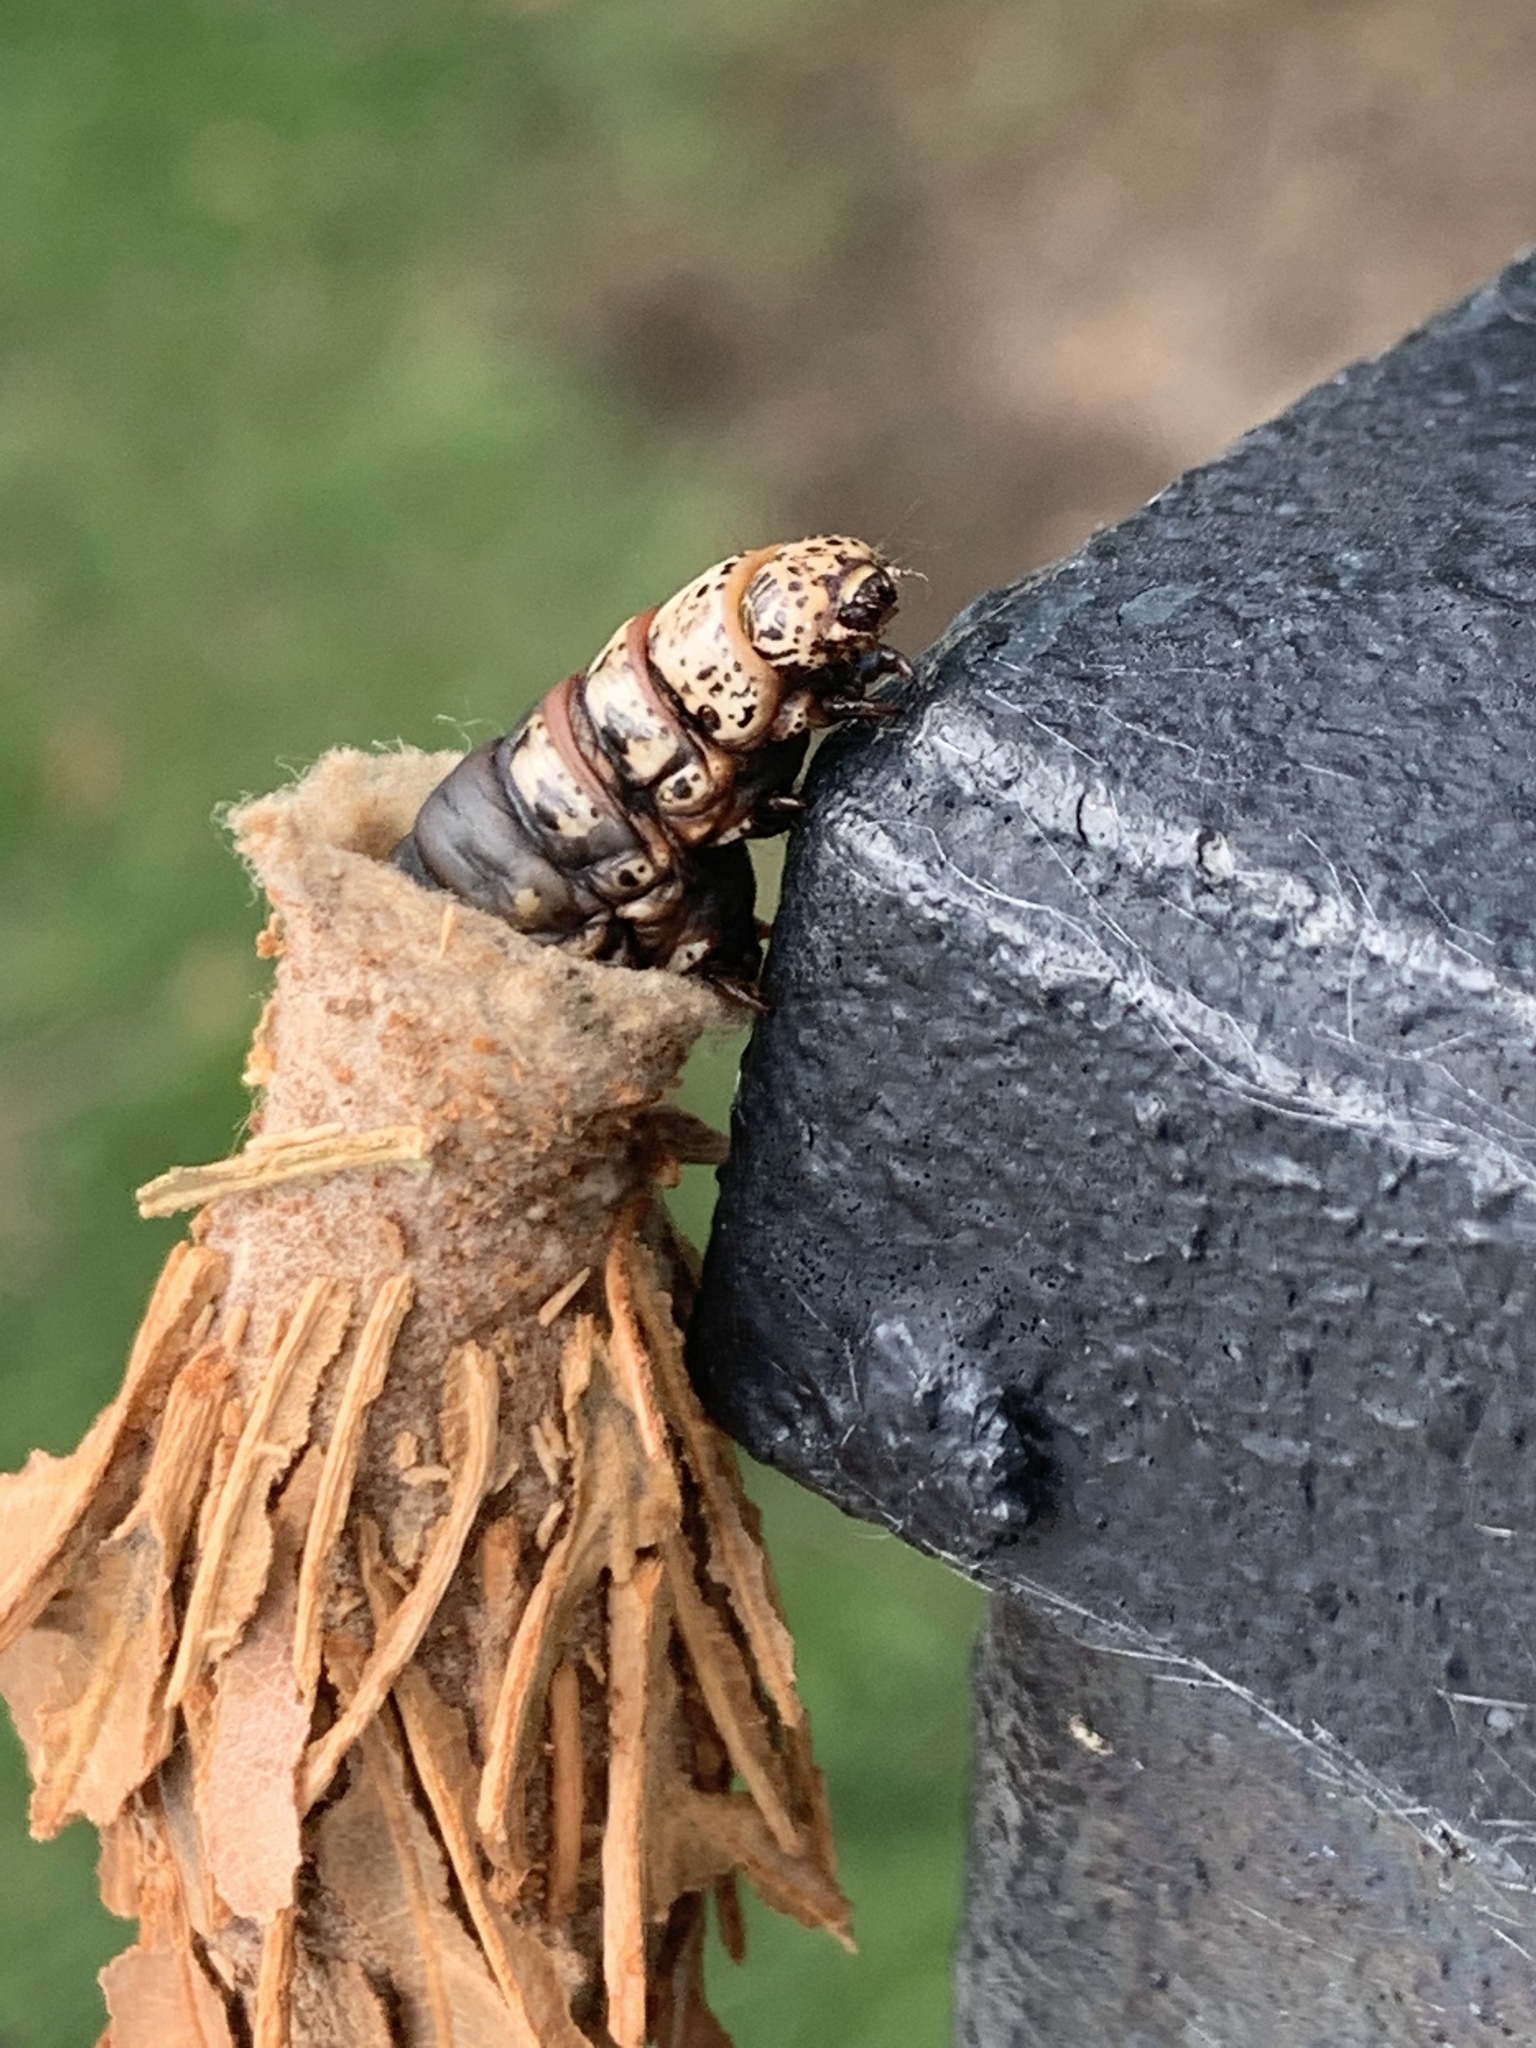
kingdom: Animalia
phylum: Arthropoda
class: Insecta
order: Lepidoptera
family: Psychidae
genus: Thyridopteryx
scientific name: Thyridopteryx ephemeraeformis
